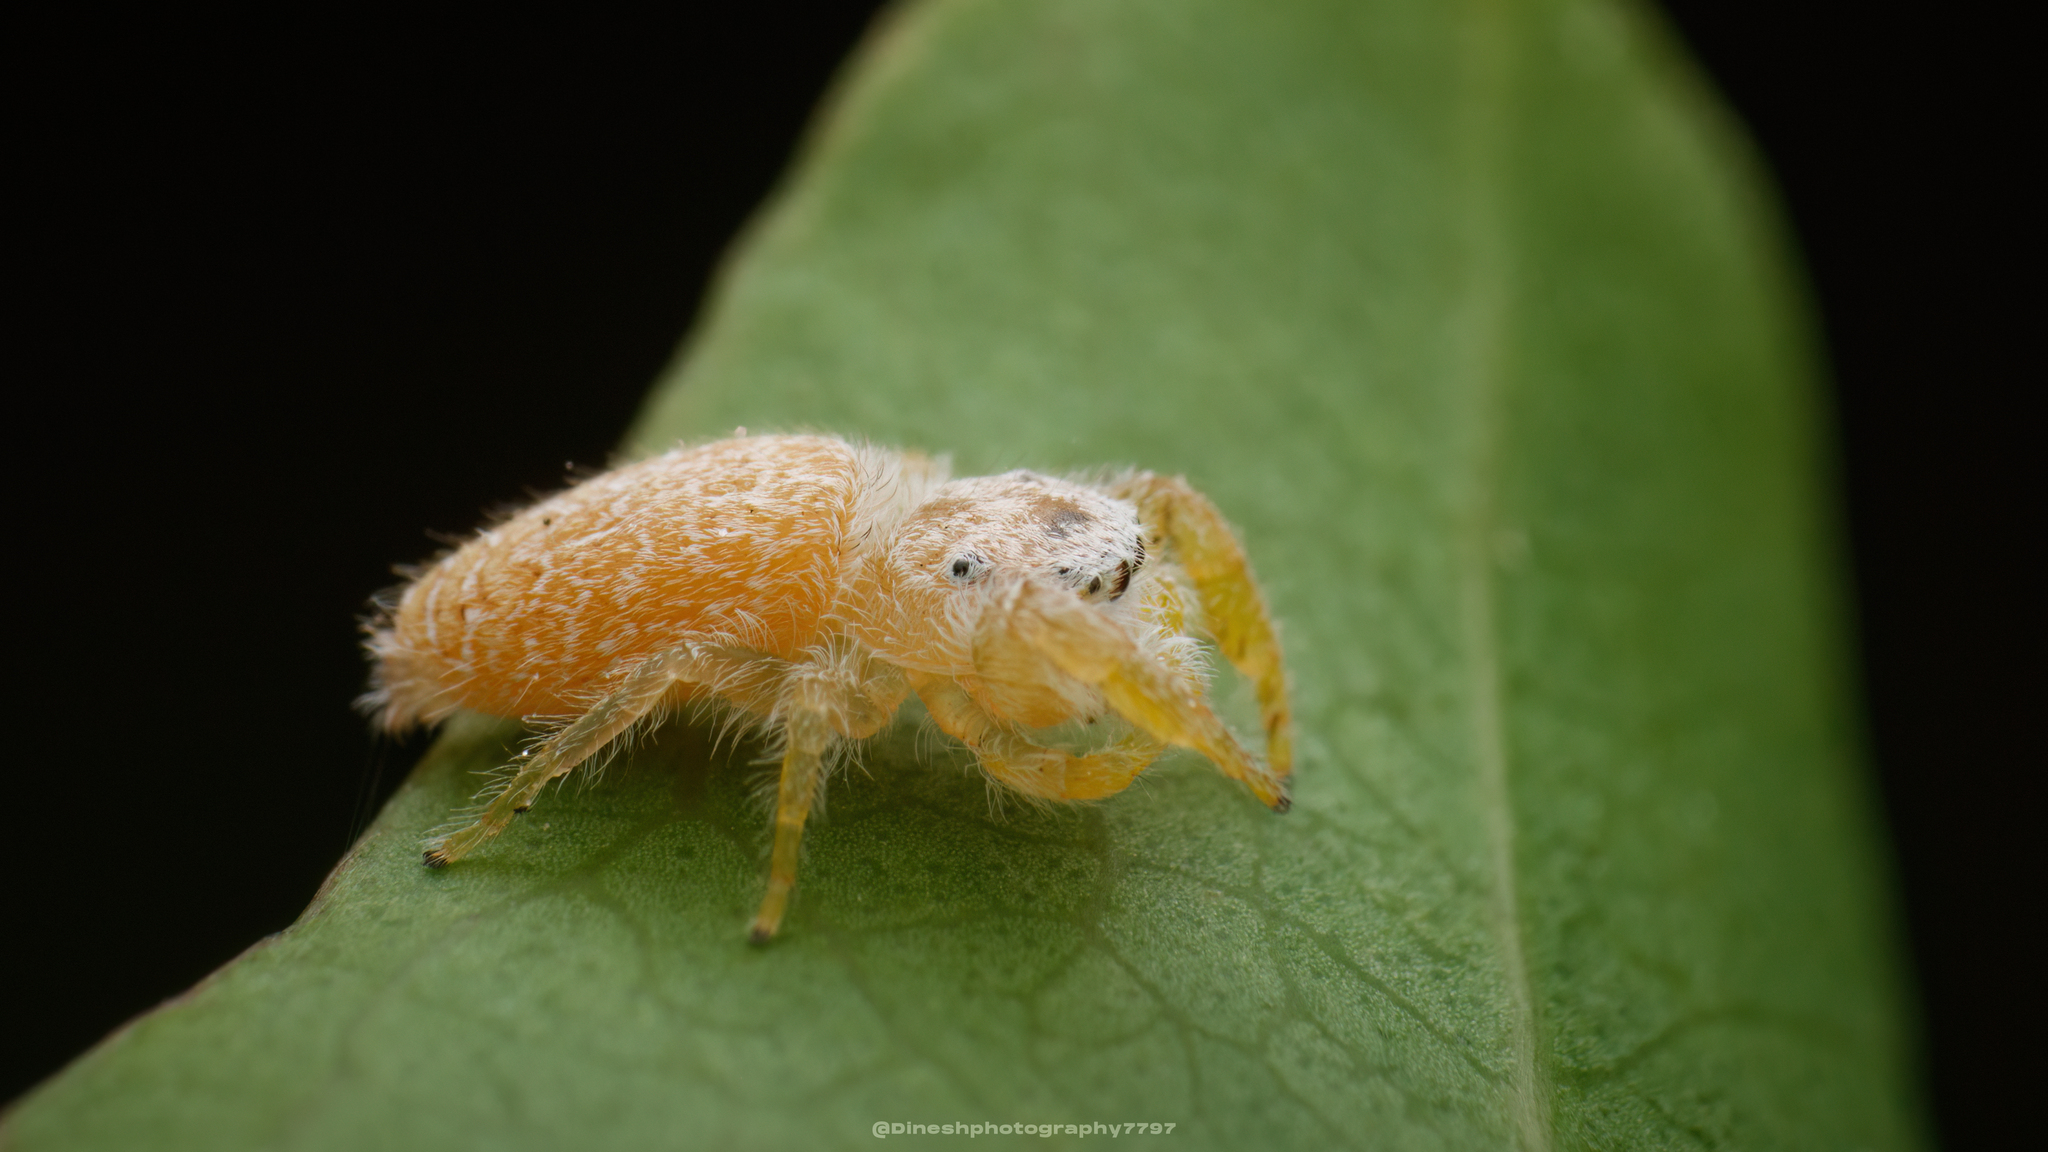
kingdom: Animalia
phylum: Arthropoda
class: Arachnida
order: Araneae
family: Salticidae
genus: Rhene
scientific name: Rhene pallida
